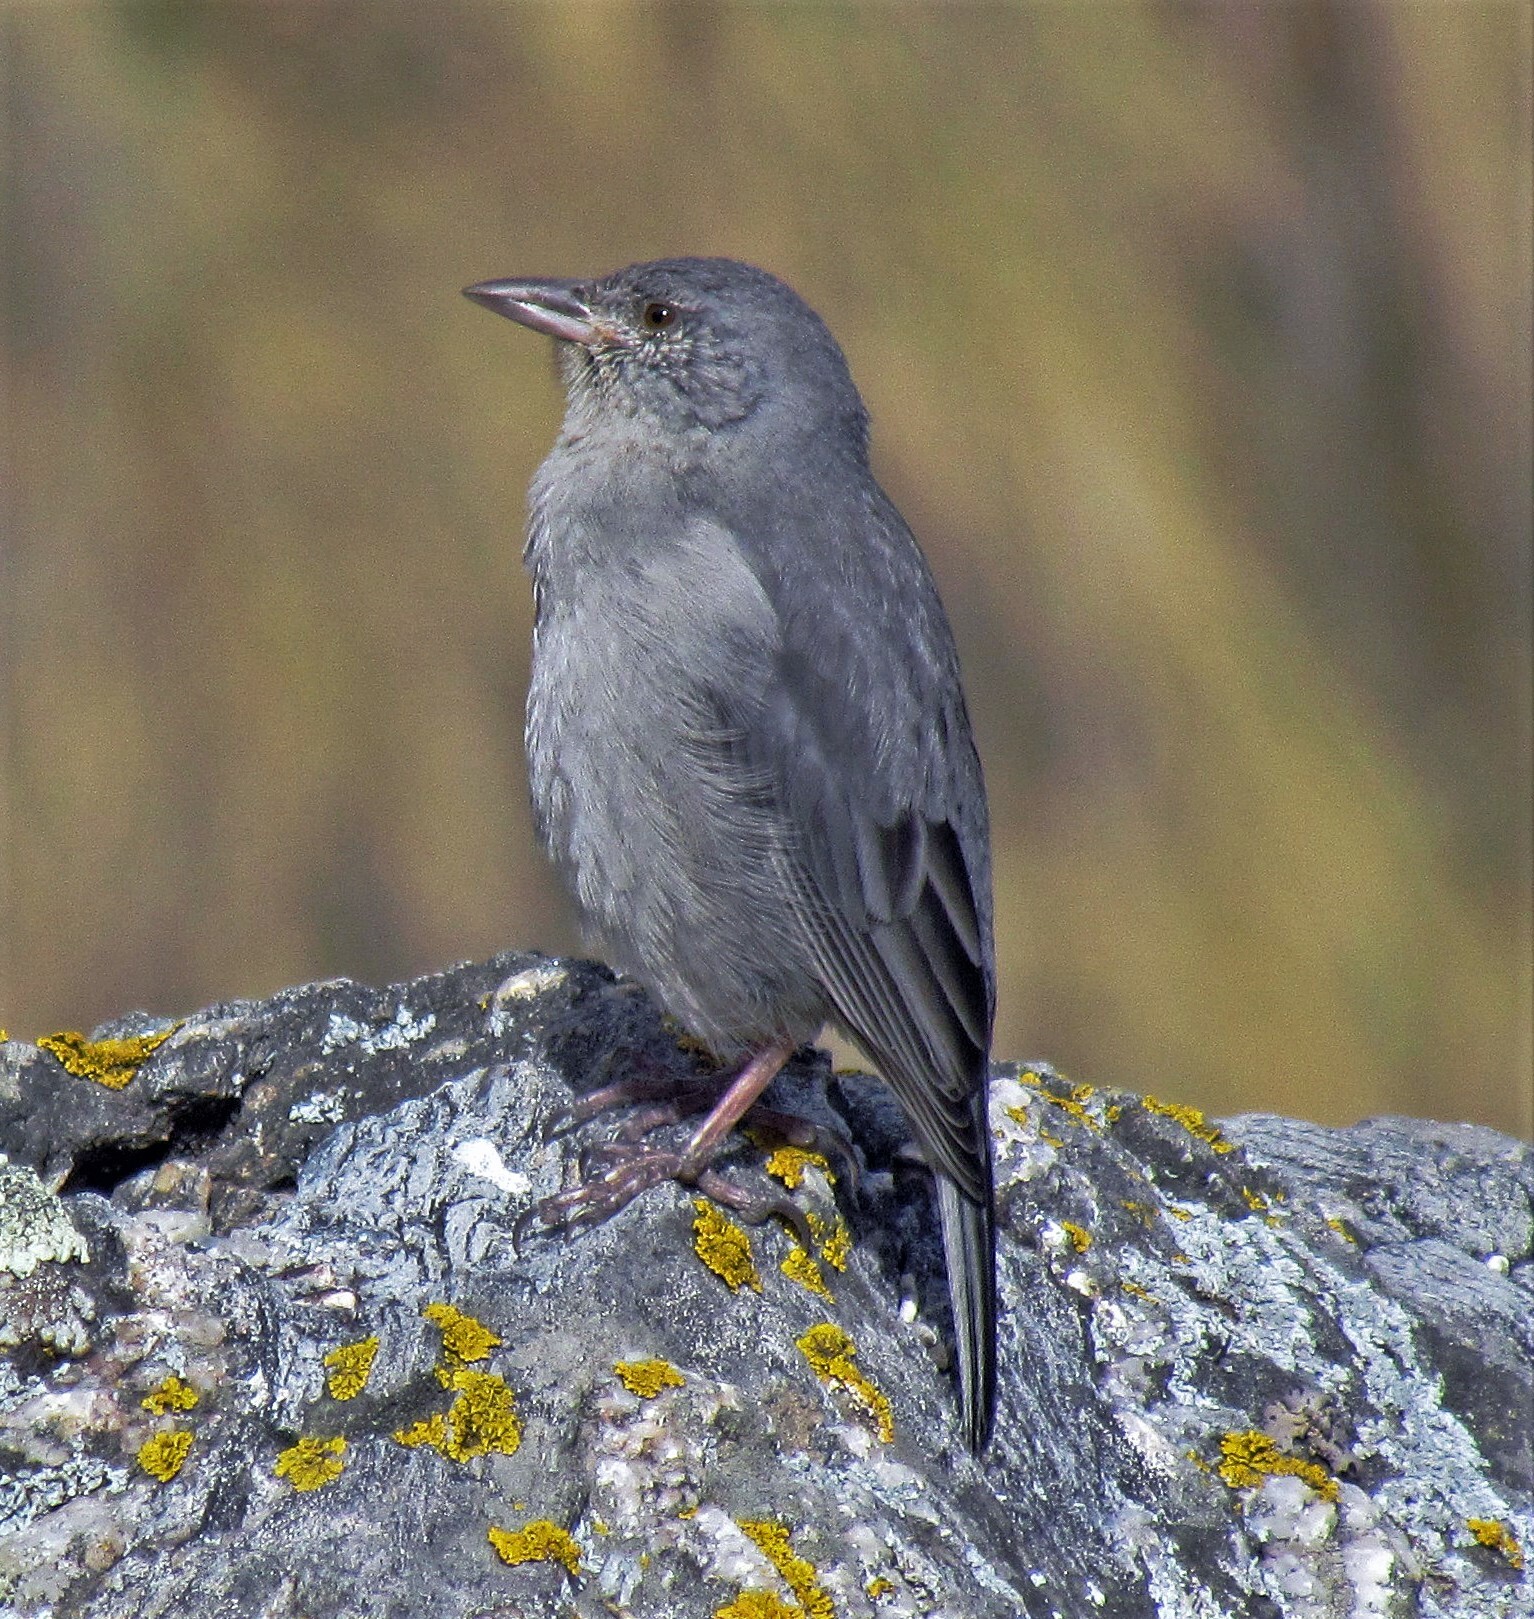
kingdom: Animalia
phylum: Chordata
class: Aves
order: Passeriformes
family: Thraupidae
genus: Idiopsar
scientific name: Idiopsar brachyurus
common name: Short-tailed finch
